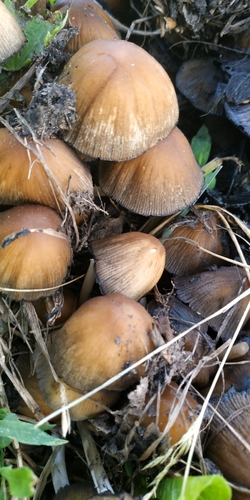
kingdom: Fungi
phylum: Basidiomycota
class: Agaricomycetes
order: Agaricales
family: Psathyrellaceae
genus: Coprinellus
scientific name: Coprinellus micaceus
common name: Glistening ink-cap
